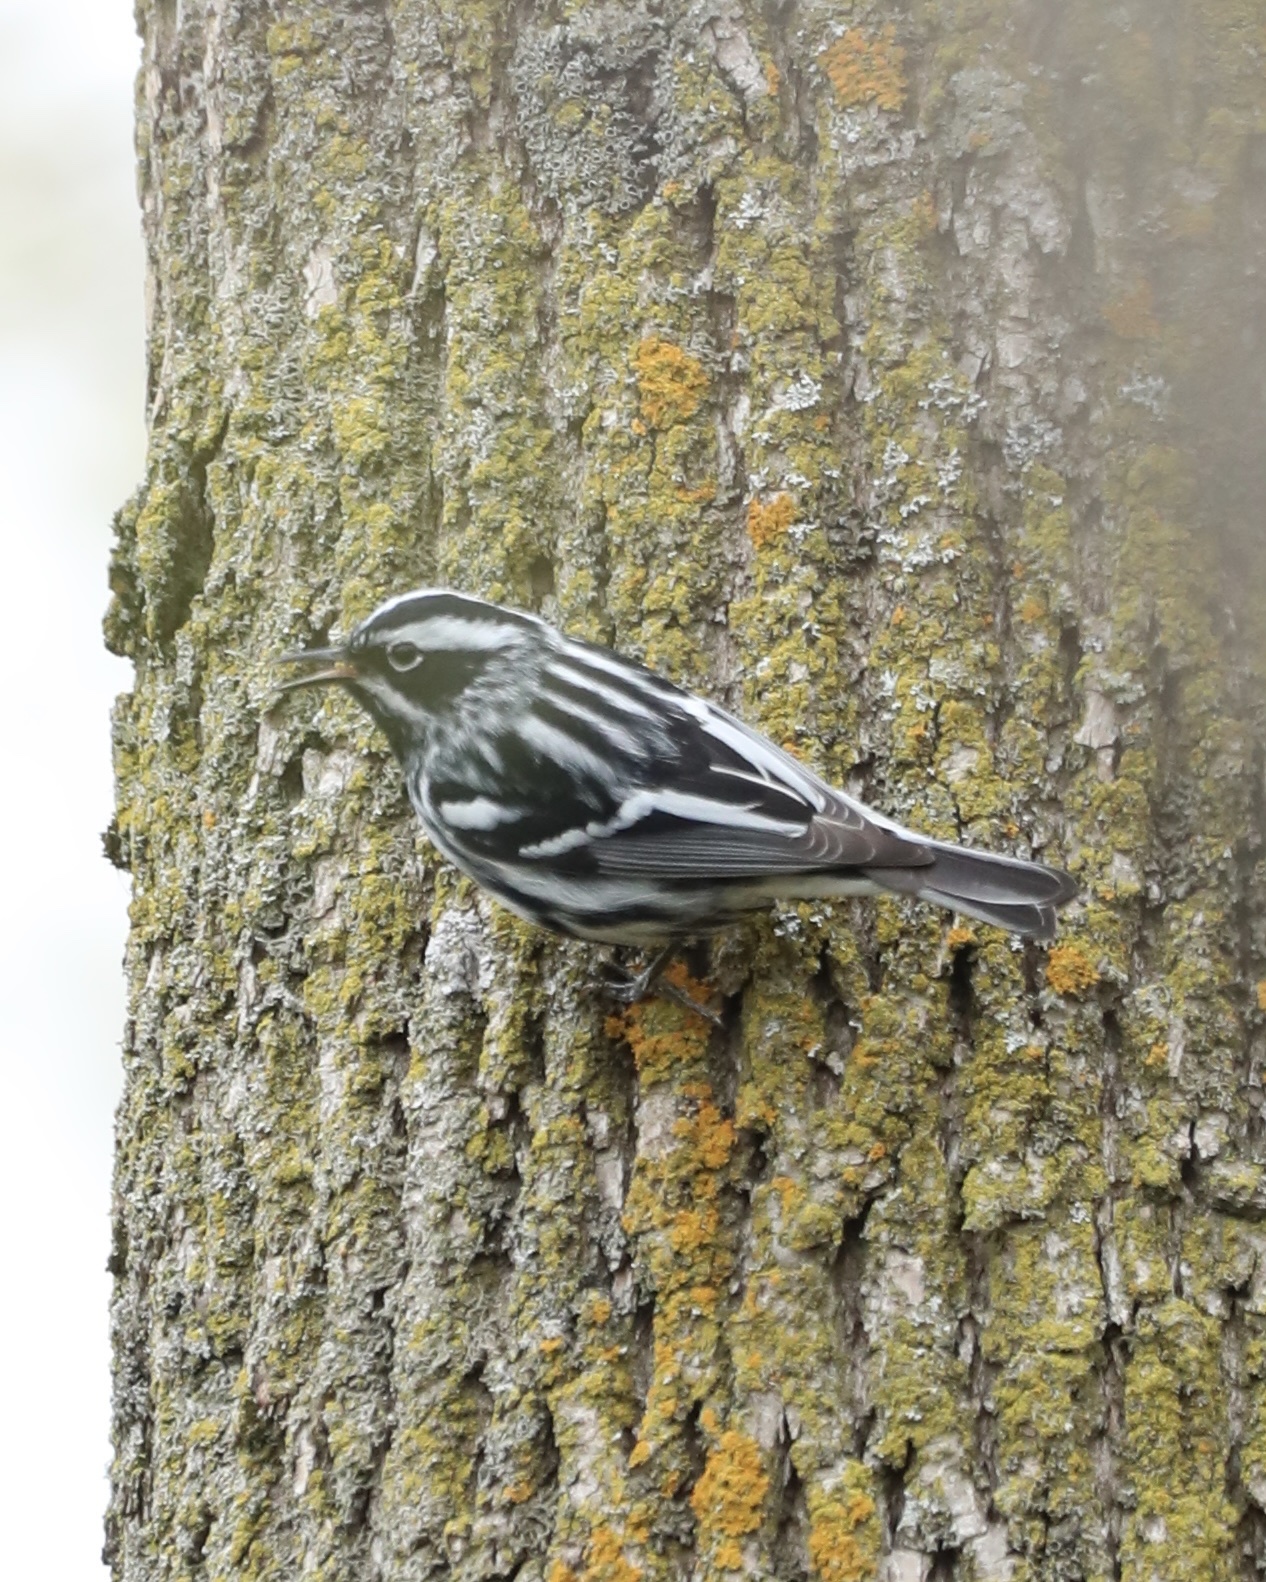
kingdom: Animalia
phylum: Chordata
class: Aves
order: Passeriformes
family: Parulidae
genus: Mniotilta
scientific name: Mniotilta varia
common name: Black-and-white warbler
